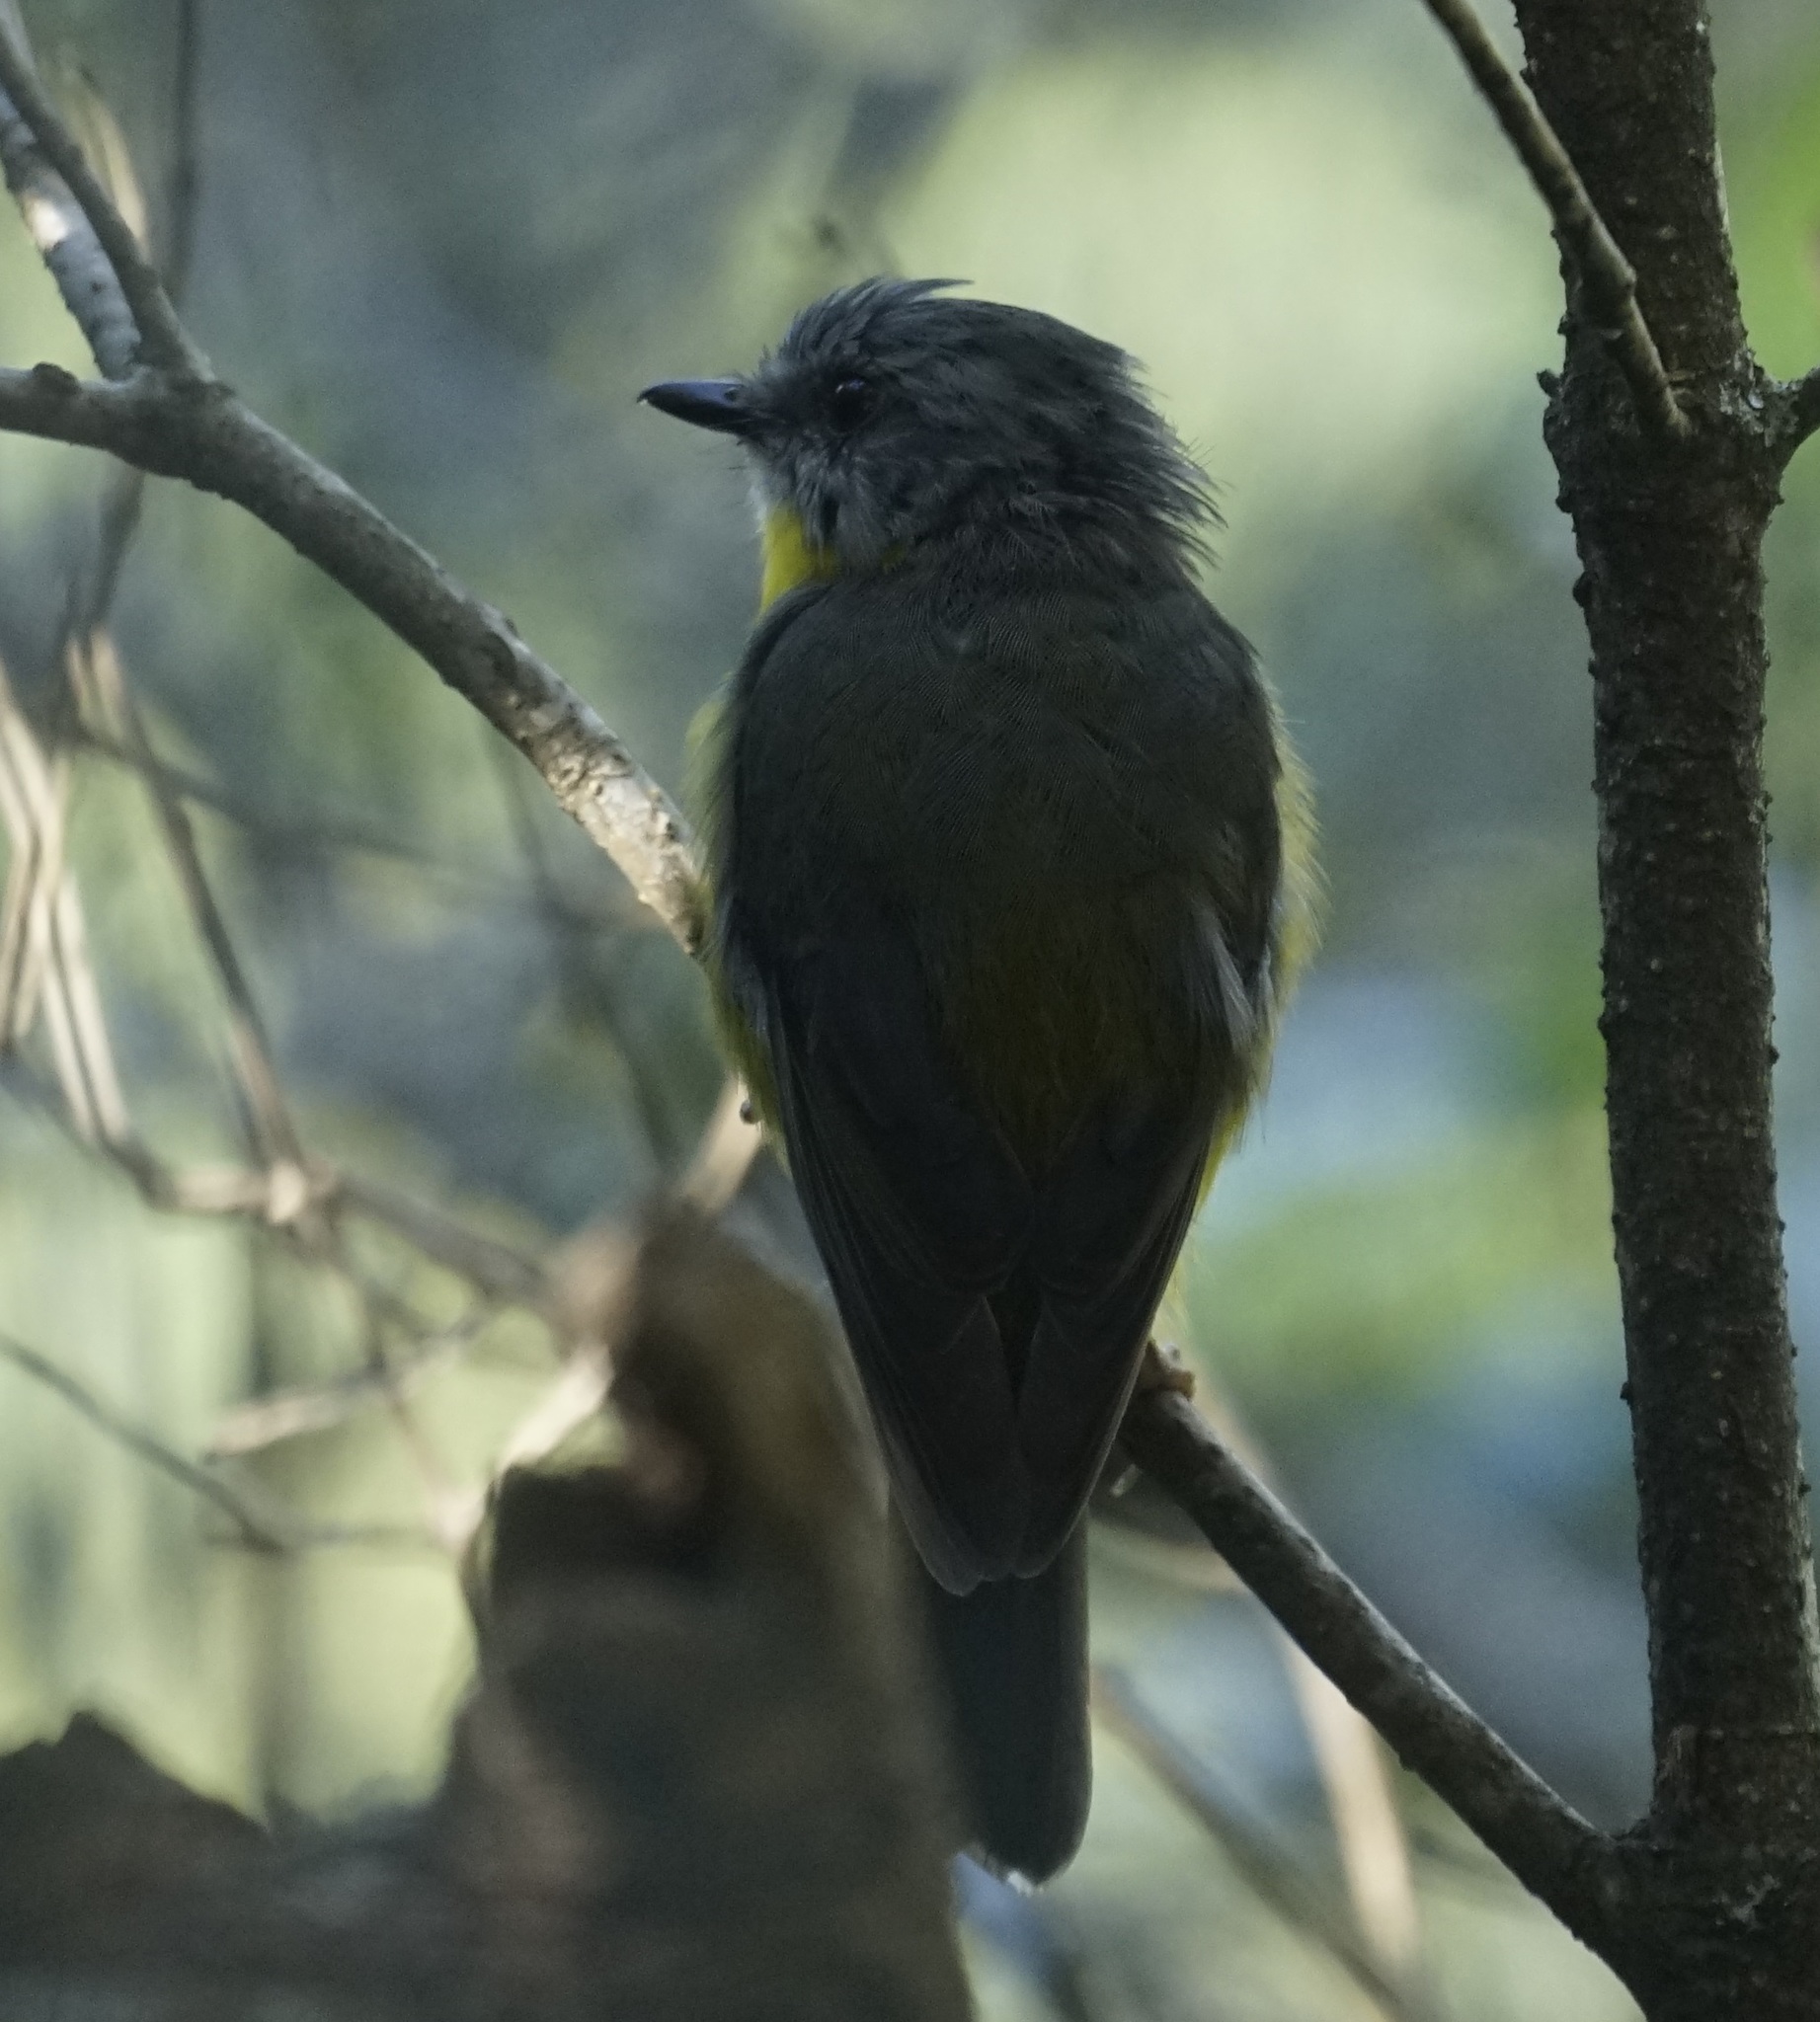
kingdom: Animalia
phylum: Chordata
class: Aves
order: Passeriformes
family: Petroicidae
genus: Eopsaltria
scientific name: Eopsaltria australis
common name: Eastern yellow robin
